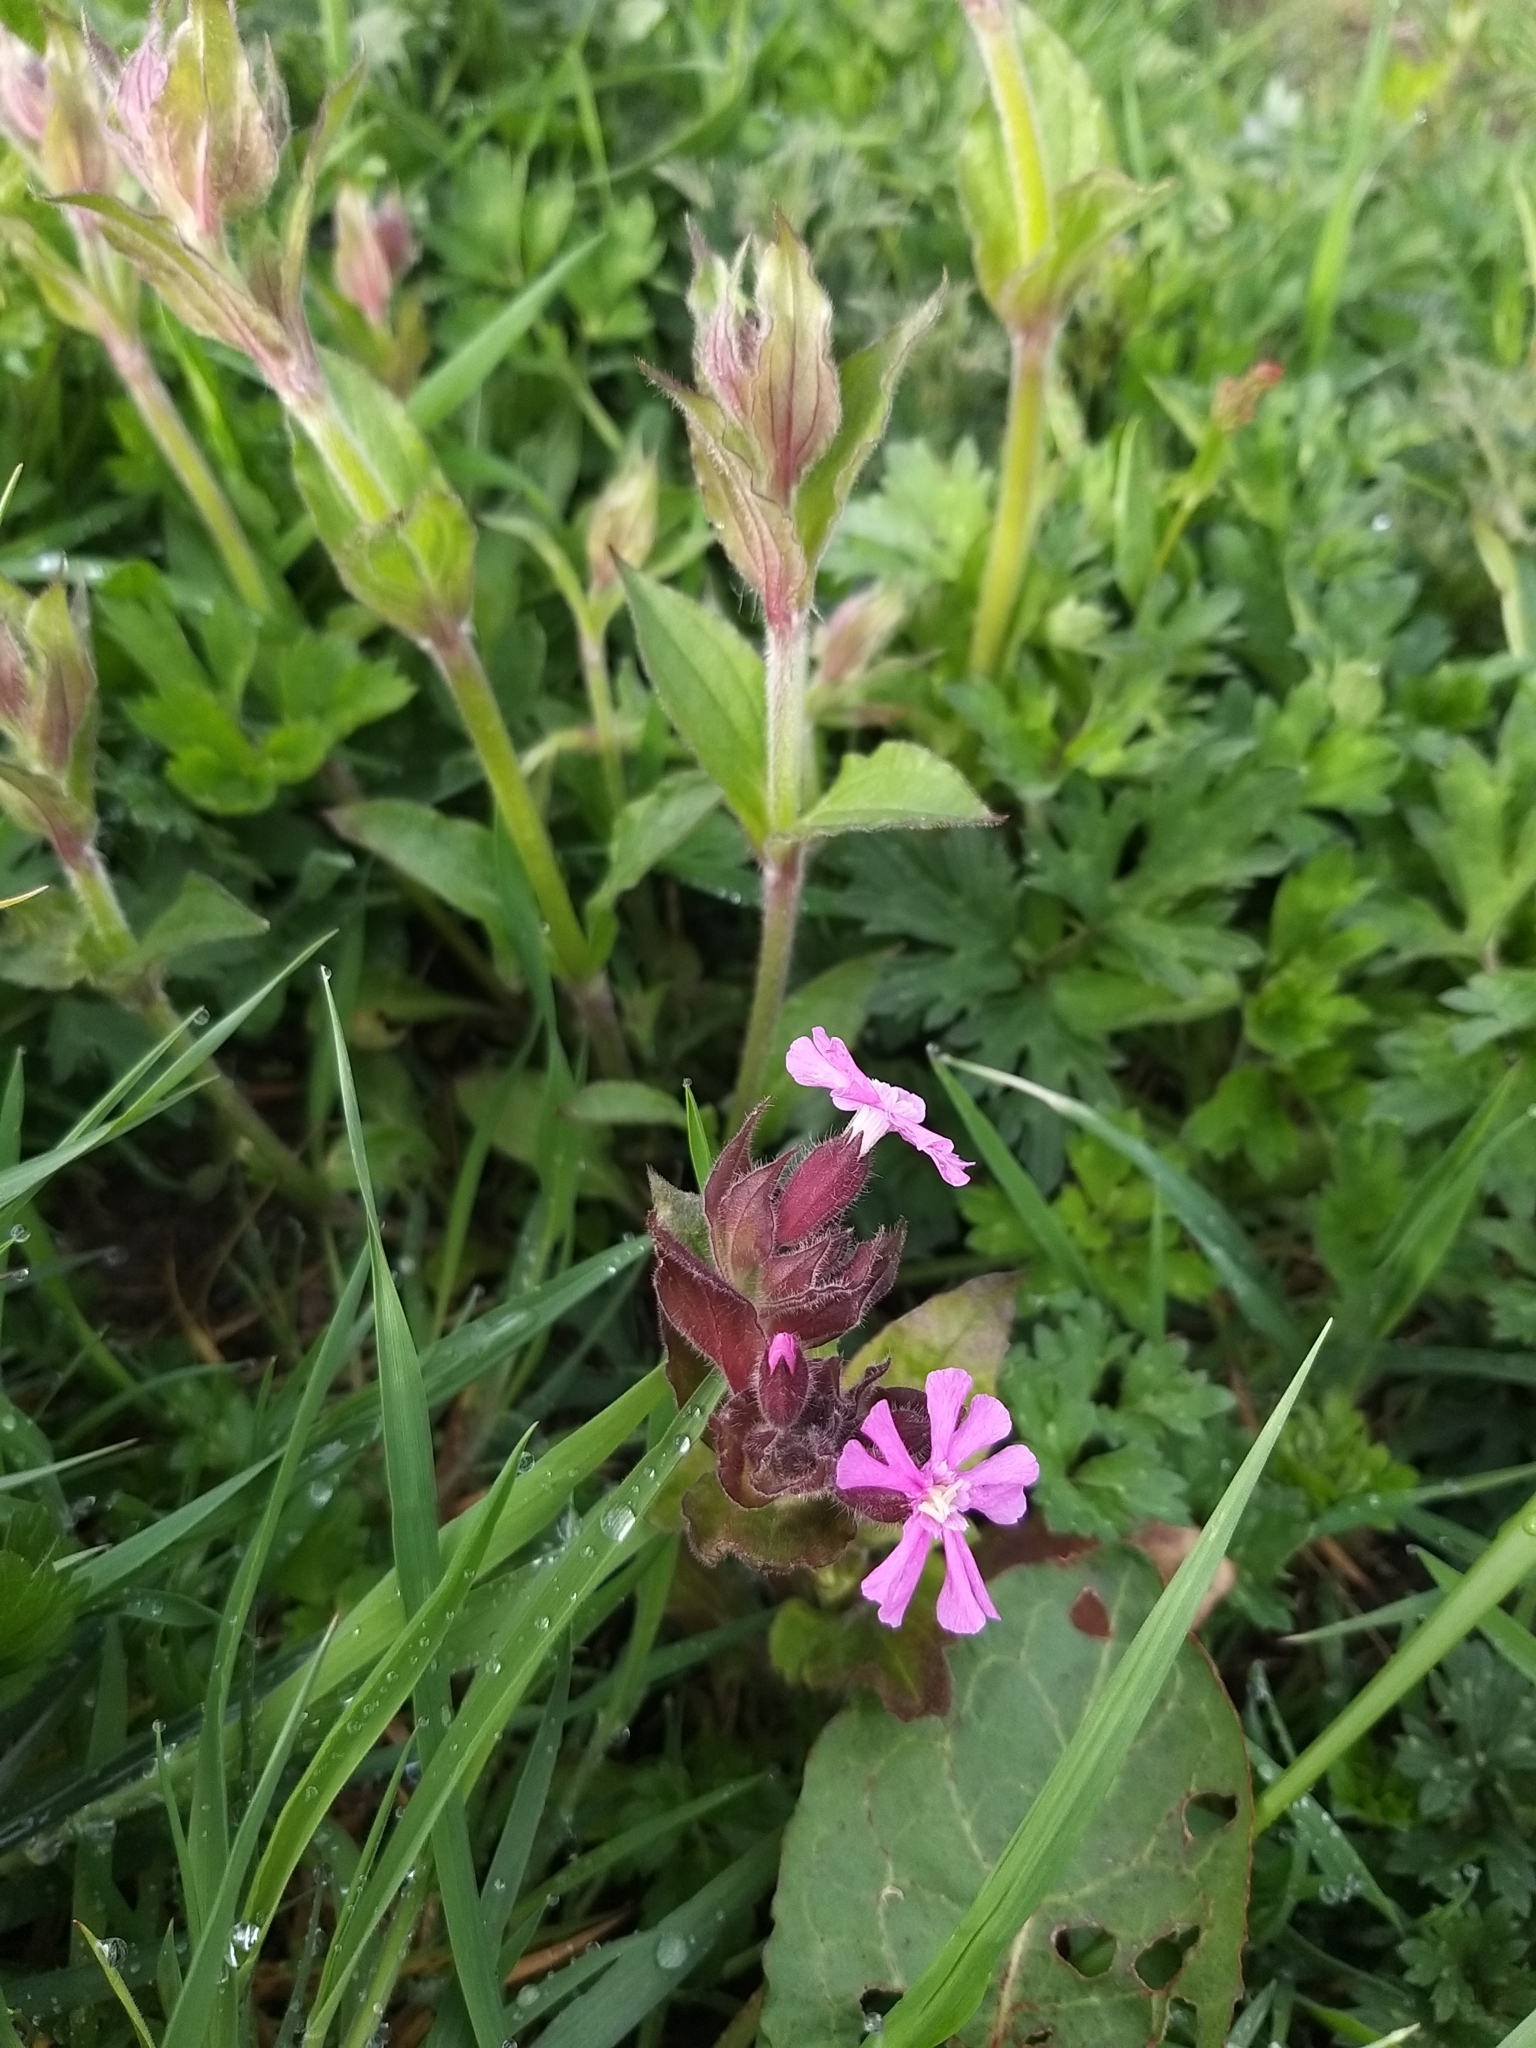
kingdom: Plantae
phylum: Tracheophyta
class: Magnoliopsida
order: Caryophyllales
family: Caryophyllaceae
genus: Silene
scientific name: Silene dioica
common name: Red campion
